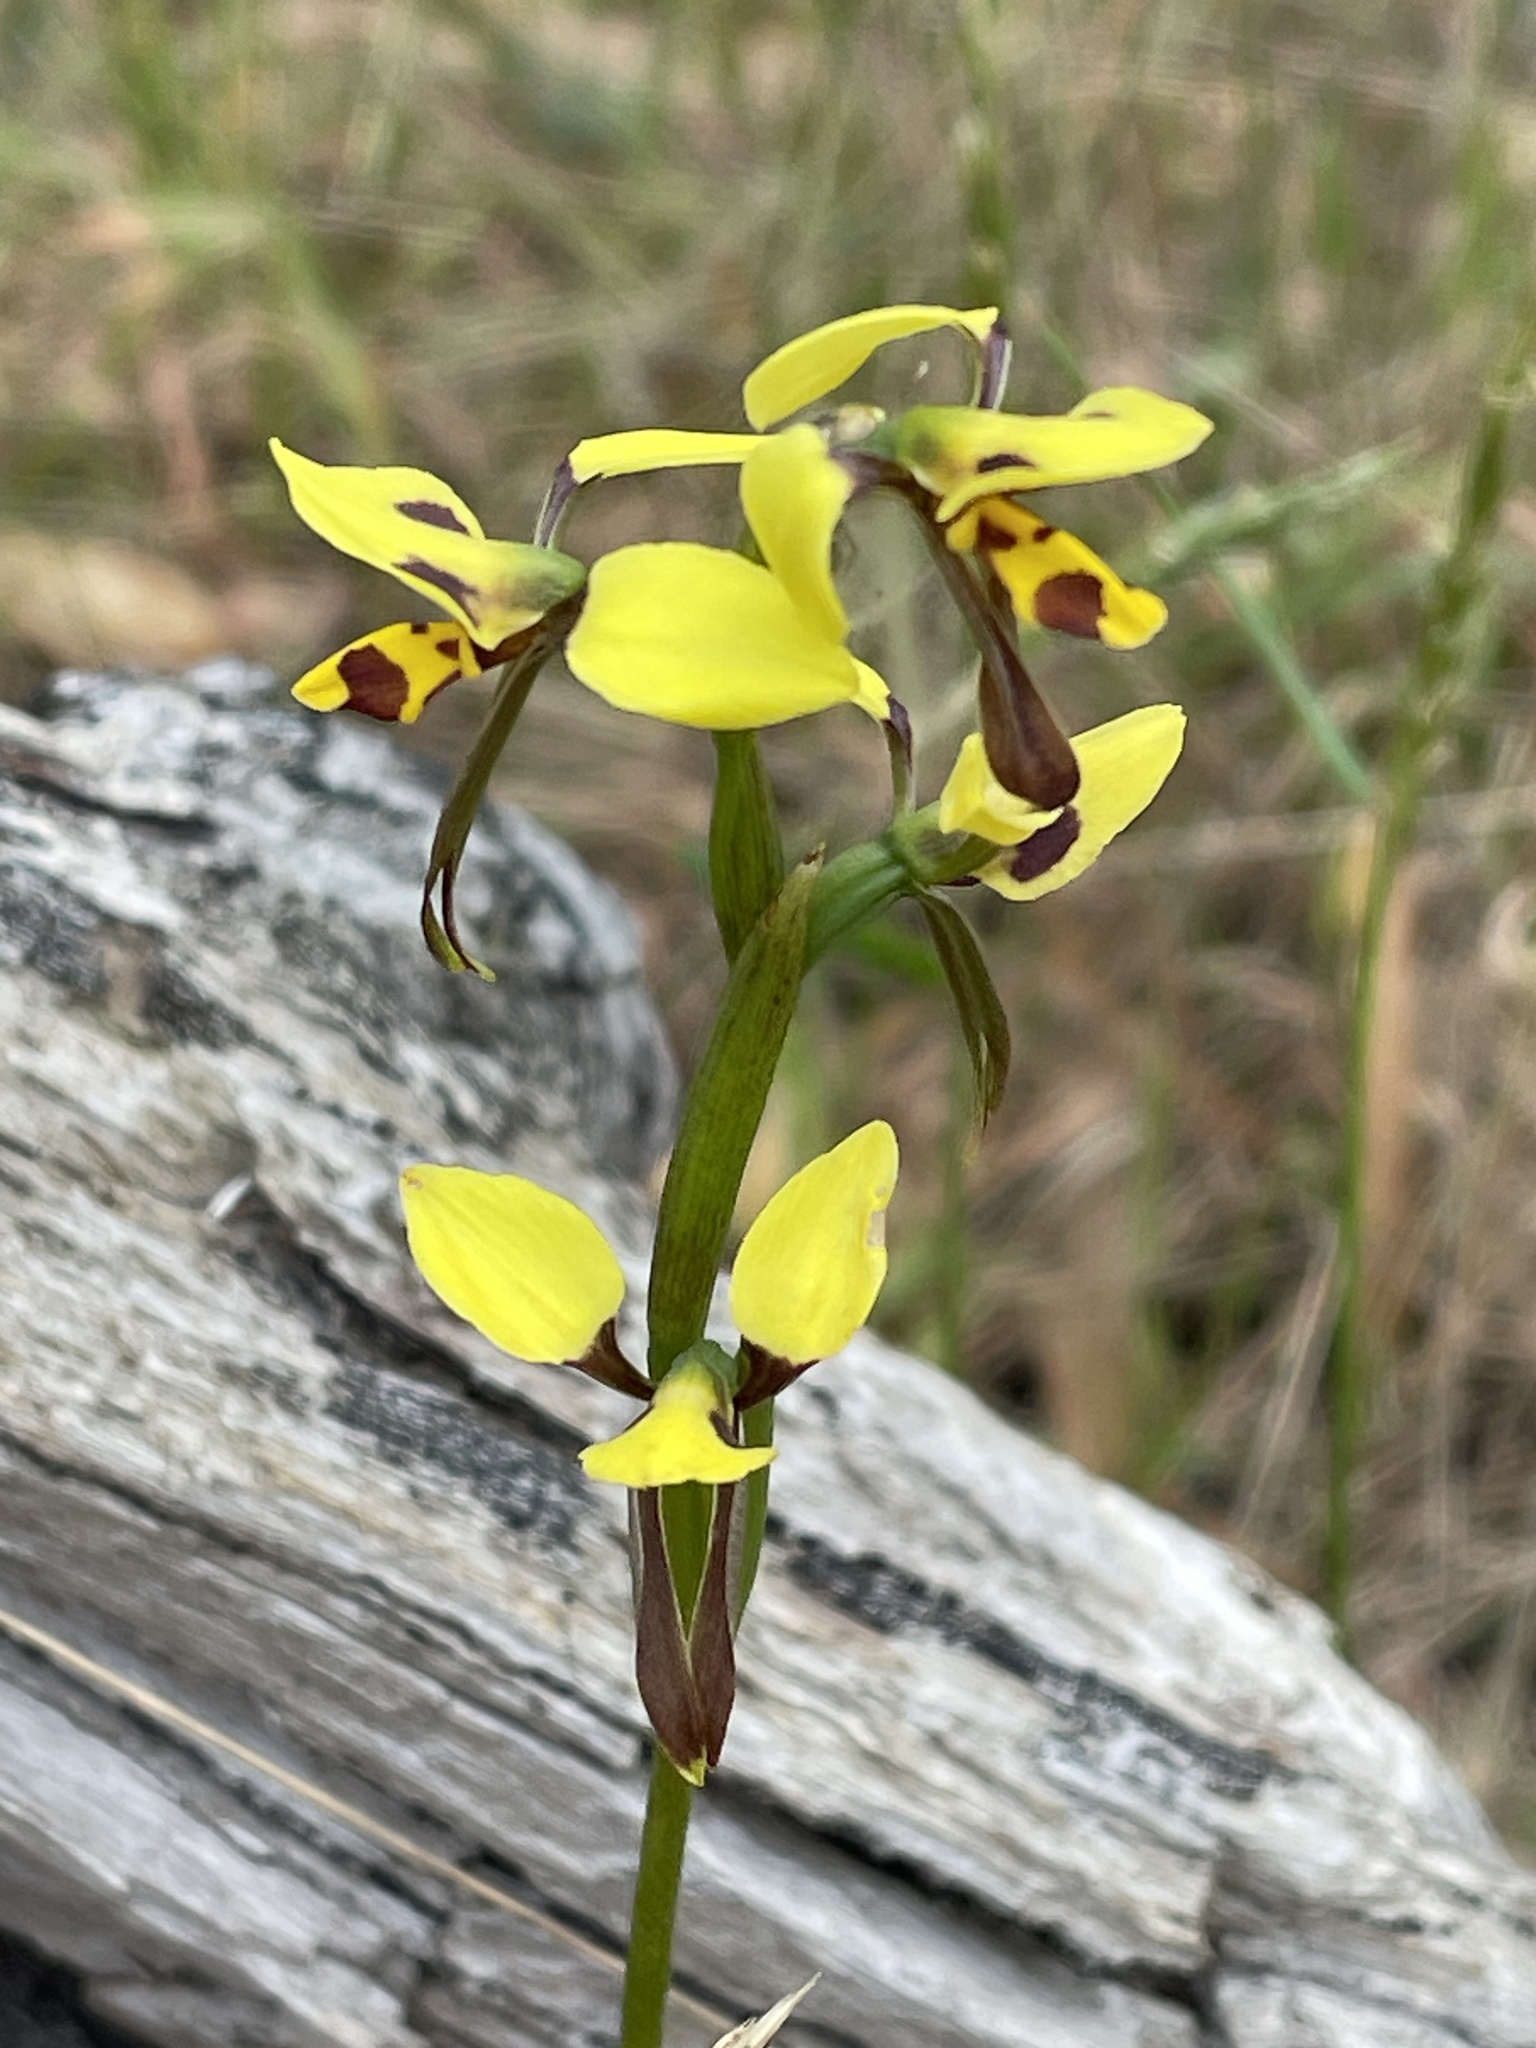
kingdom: Plantae
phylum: Tracheophyta
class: Liliopsida
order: Asparagales
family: Orchidaceae
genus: Diuris
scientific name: Diuris sulphurea
